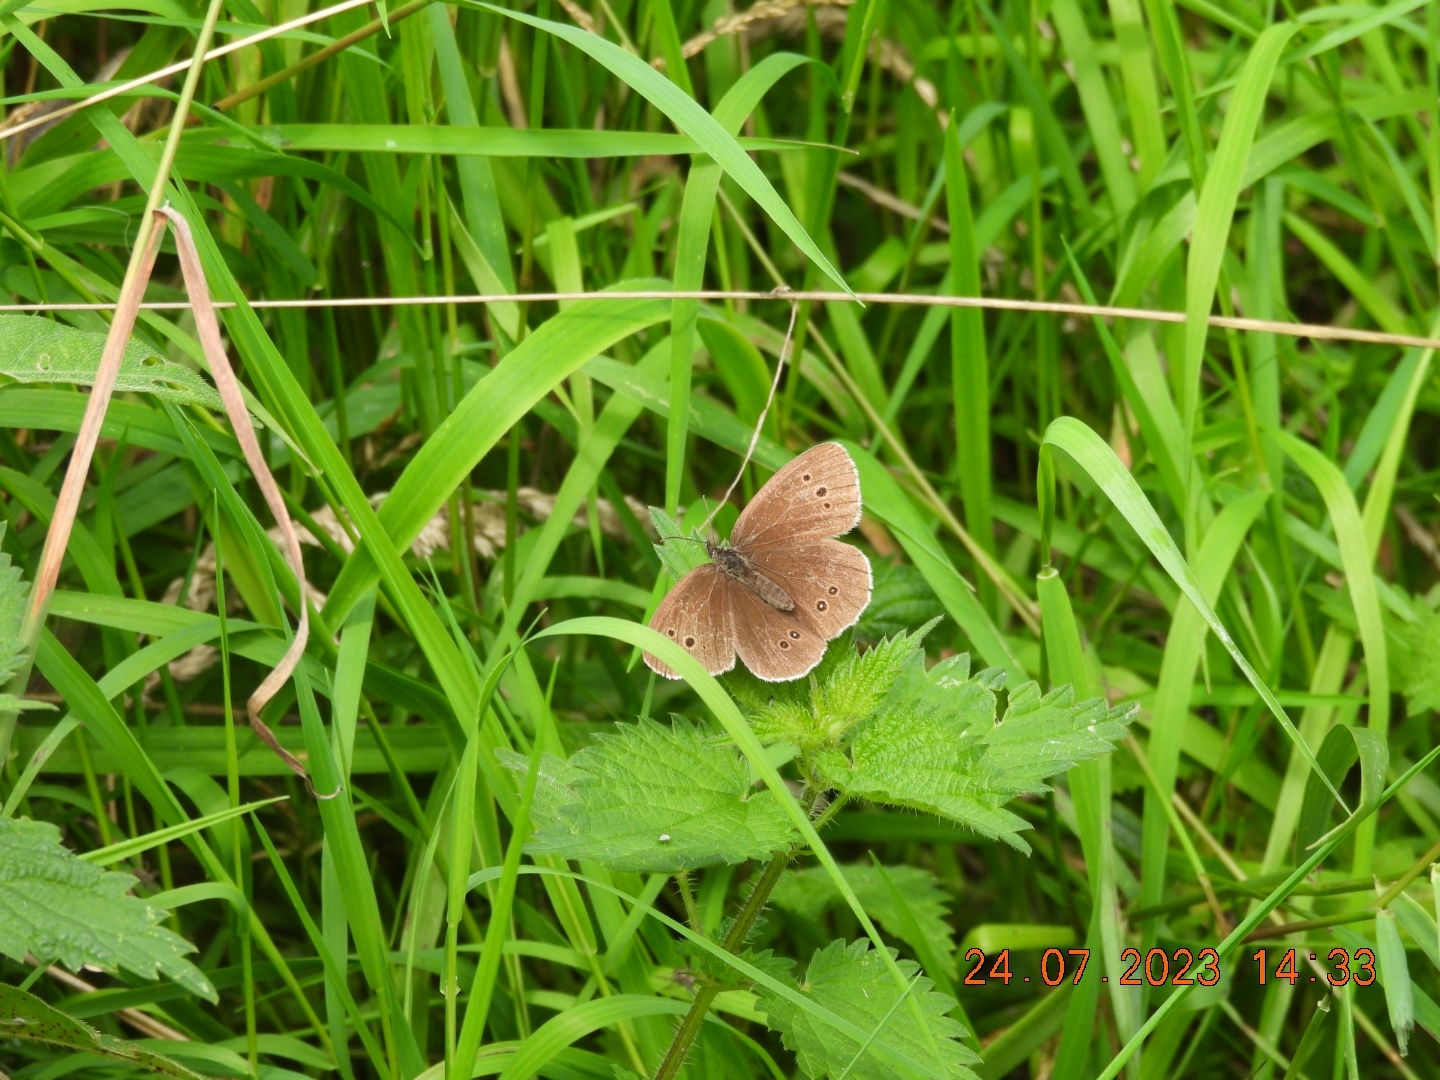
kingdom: Animalia
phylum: Arthropoda
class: Insecta
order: Lepidoptera
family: Nymphalidae
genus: Aphantopus
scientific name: Aphantopus hyperantus
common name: Ringlet
